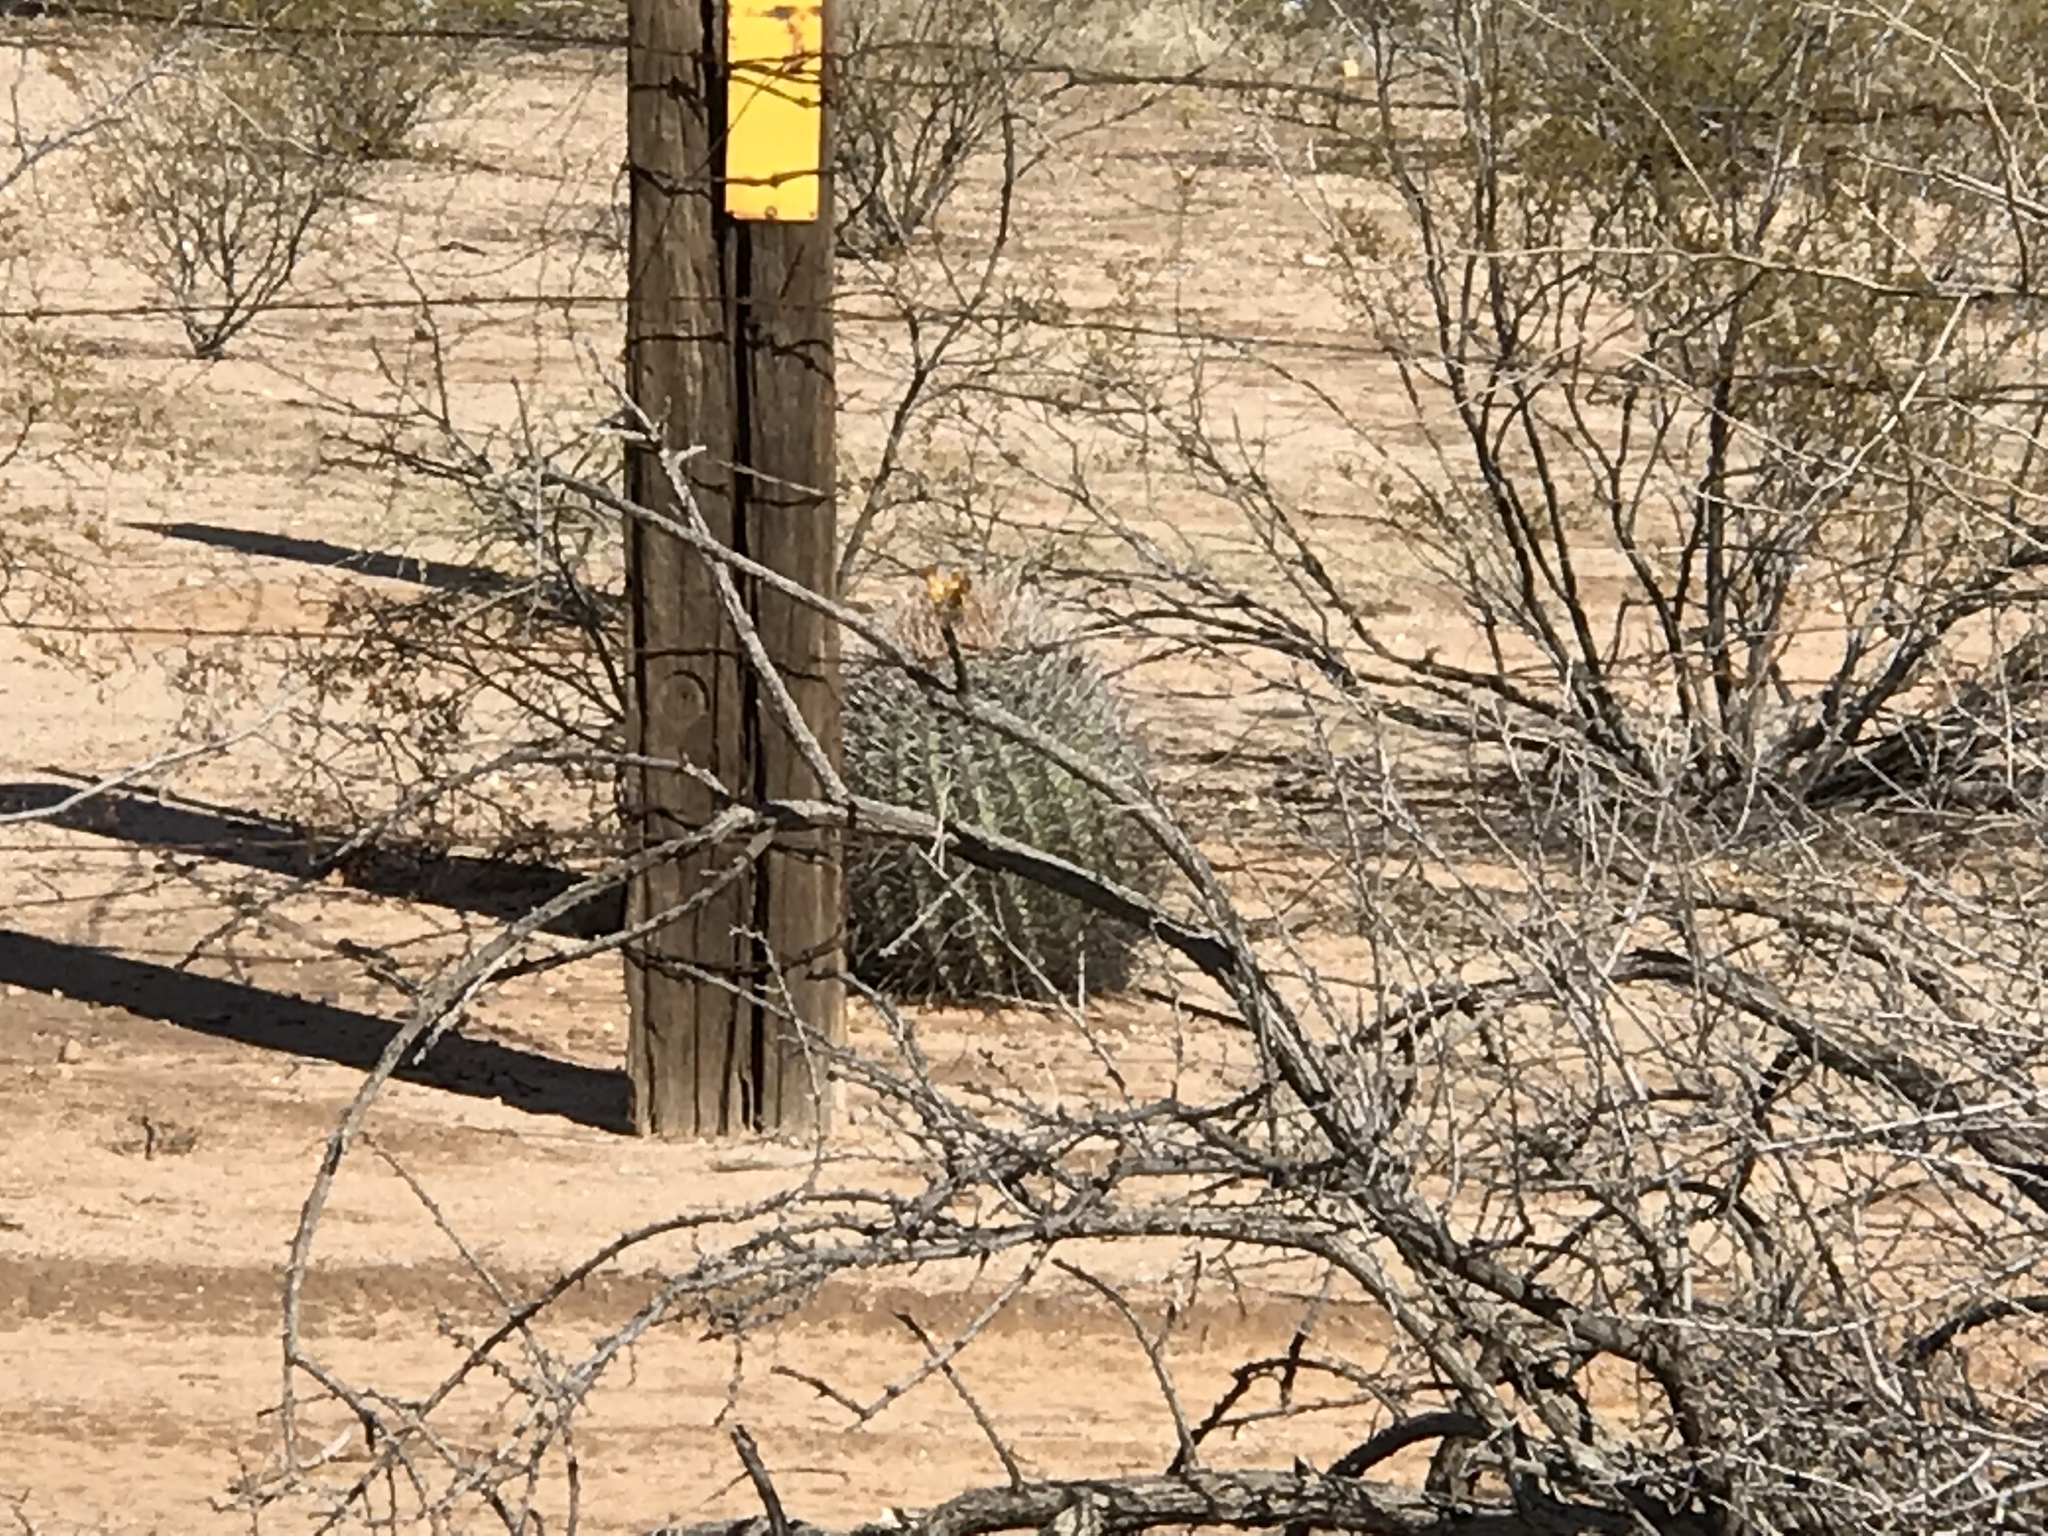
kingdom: Plantae
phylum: Tracheophyta
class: Magnoliopsida
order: Caryophyllales
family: Cactaceae
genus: Ferocactus
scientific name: Ferocactus wislizeni
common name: Candy barrel cactus
